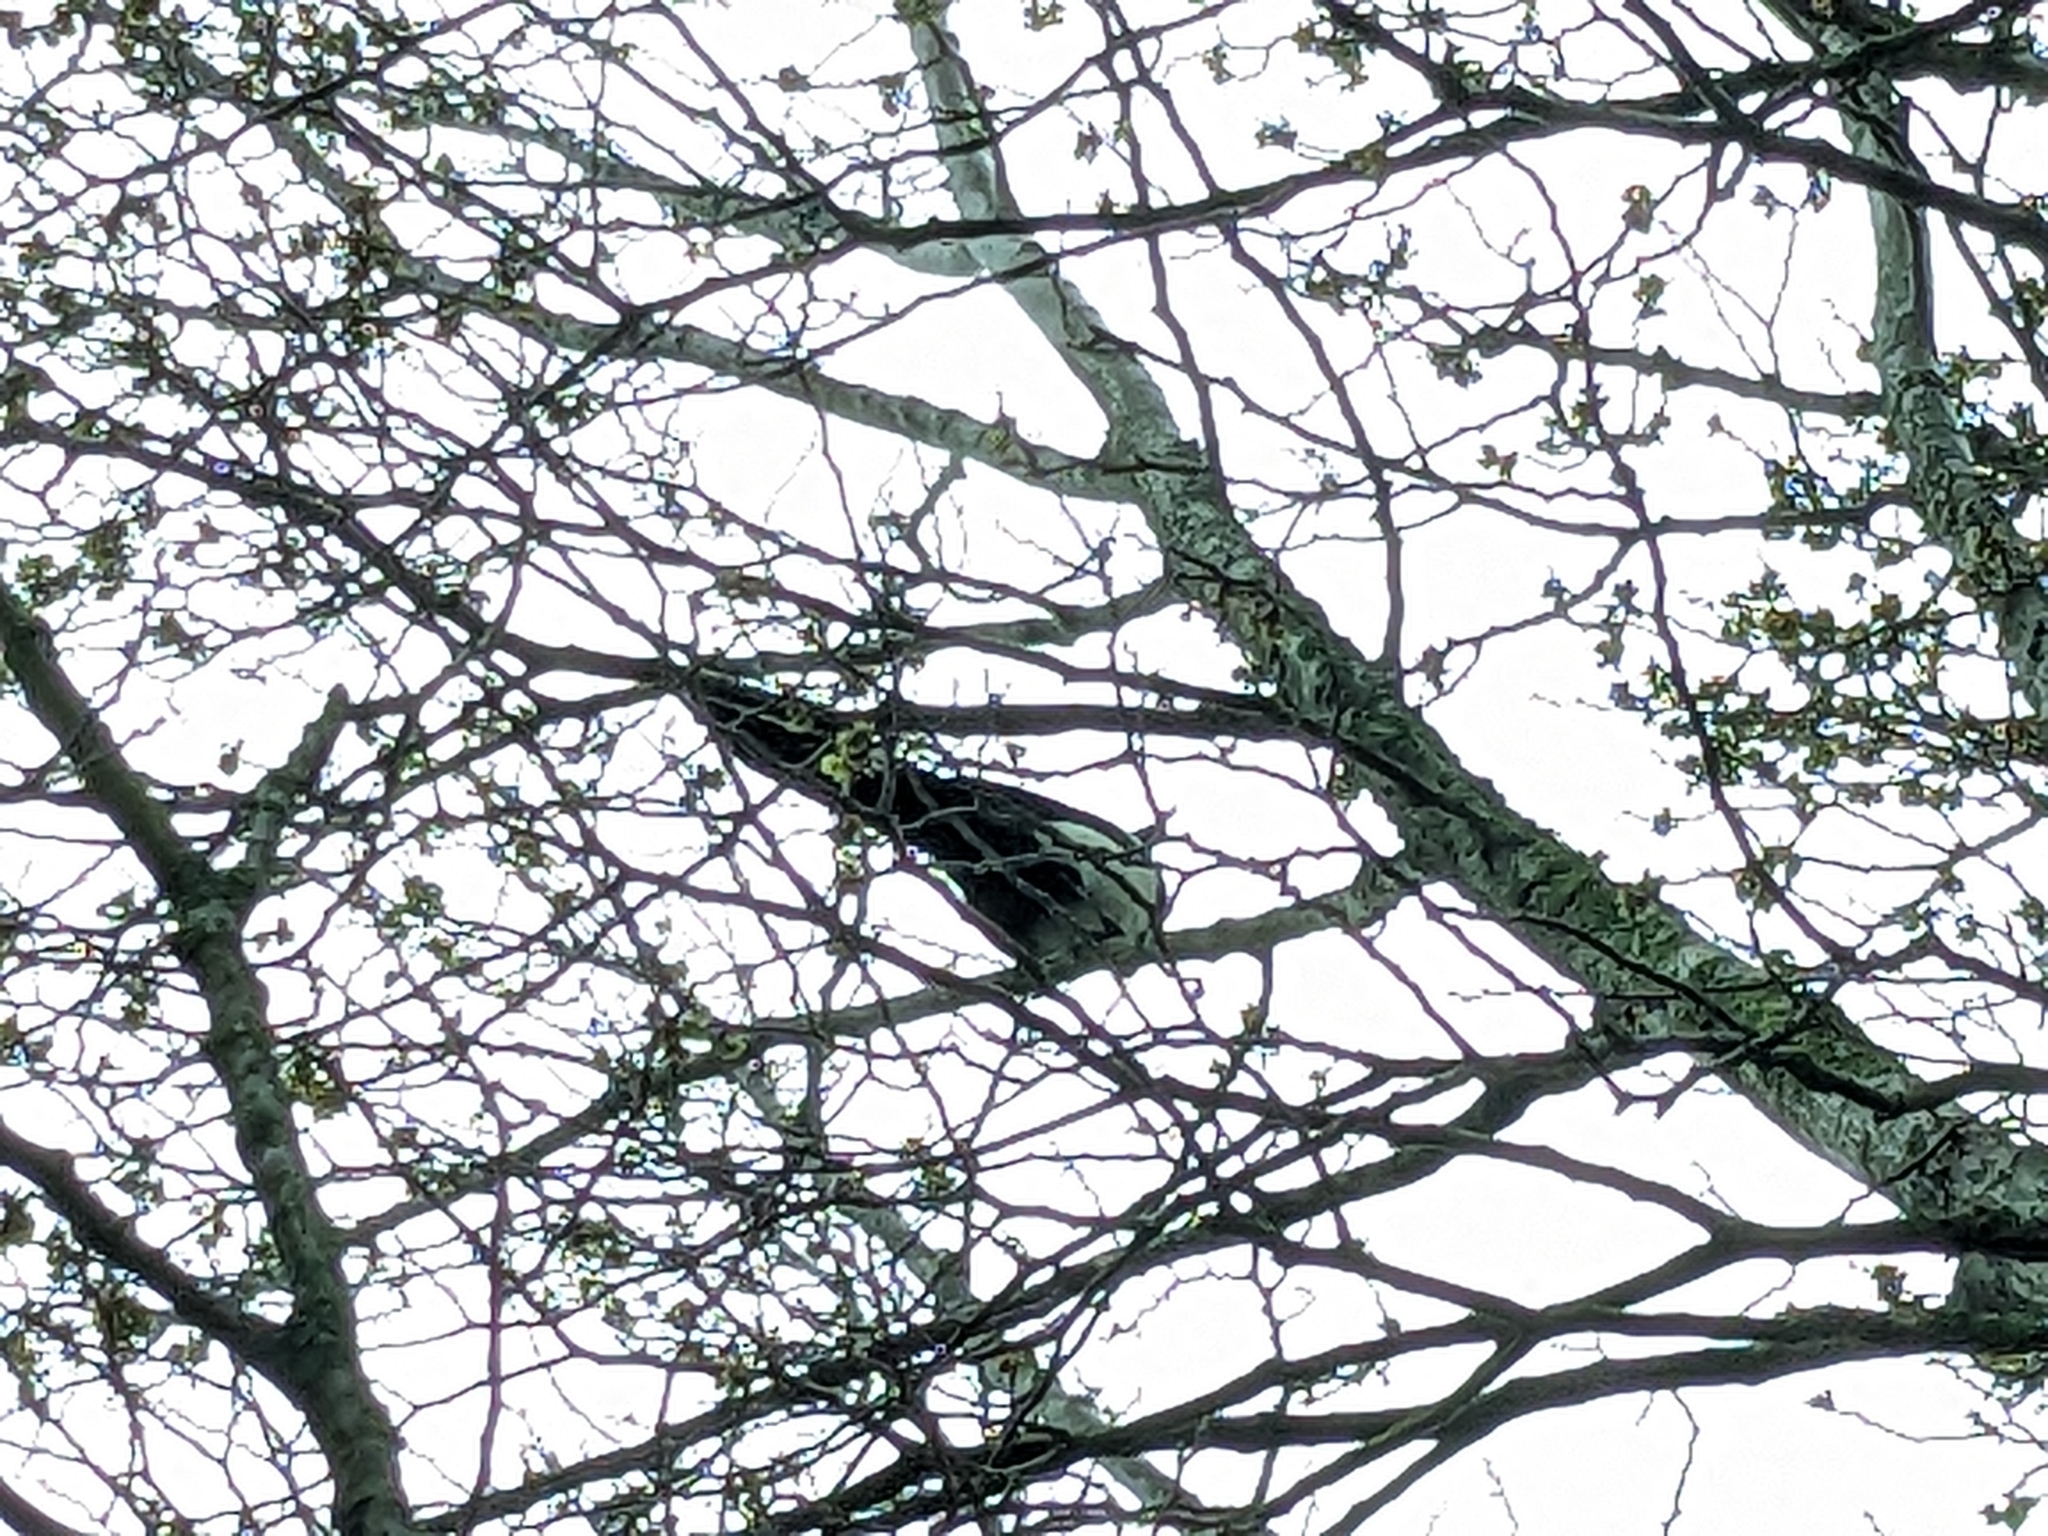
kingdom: Animalia
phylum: Chordata
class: Aves
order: Passeriformes
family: Corvidae
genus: Pica
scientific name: Pica pica
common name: Eurasian magpie
